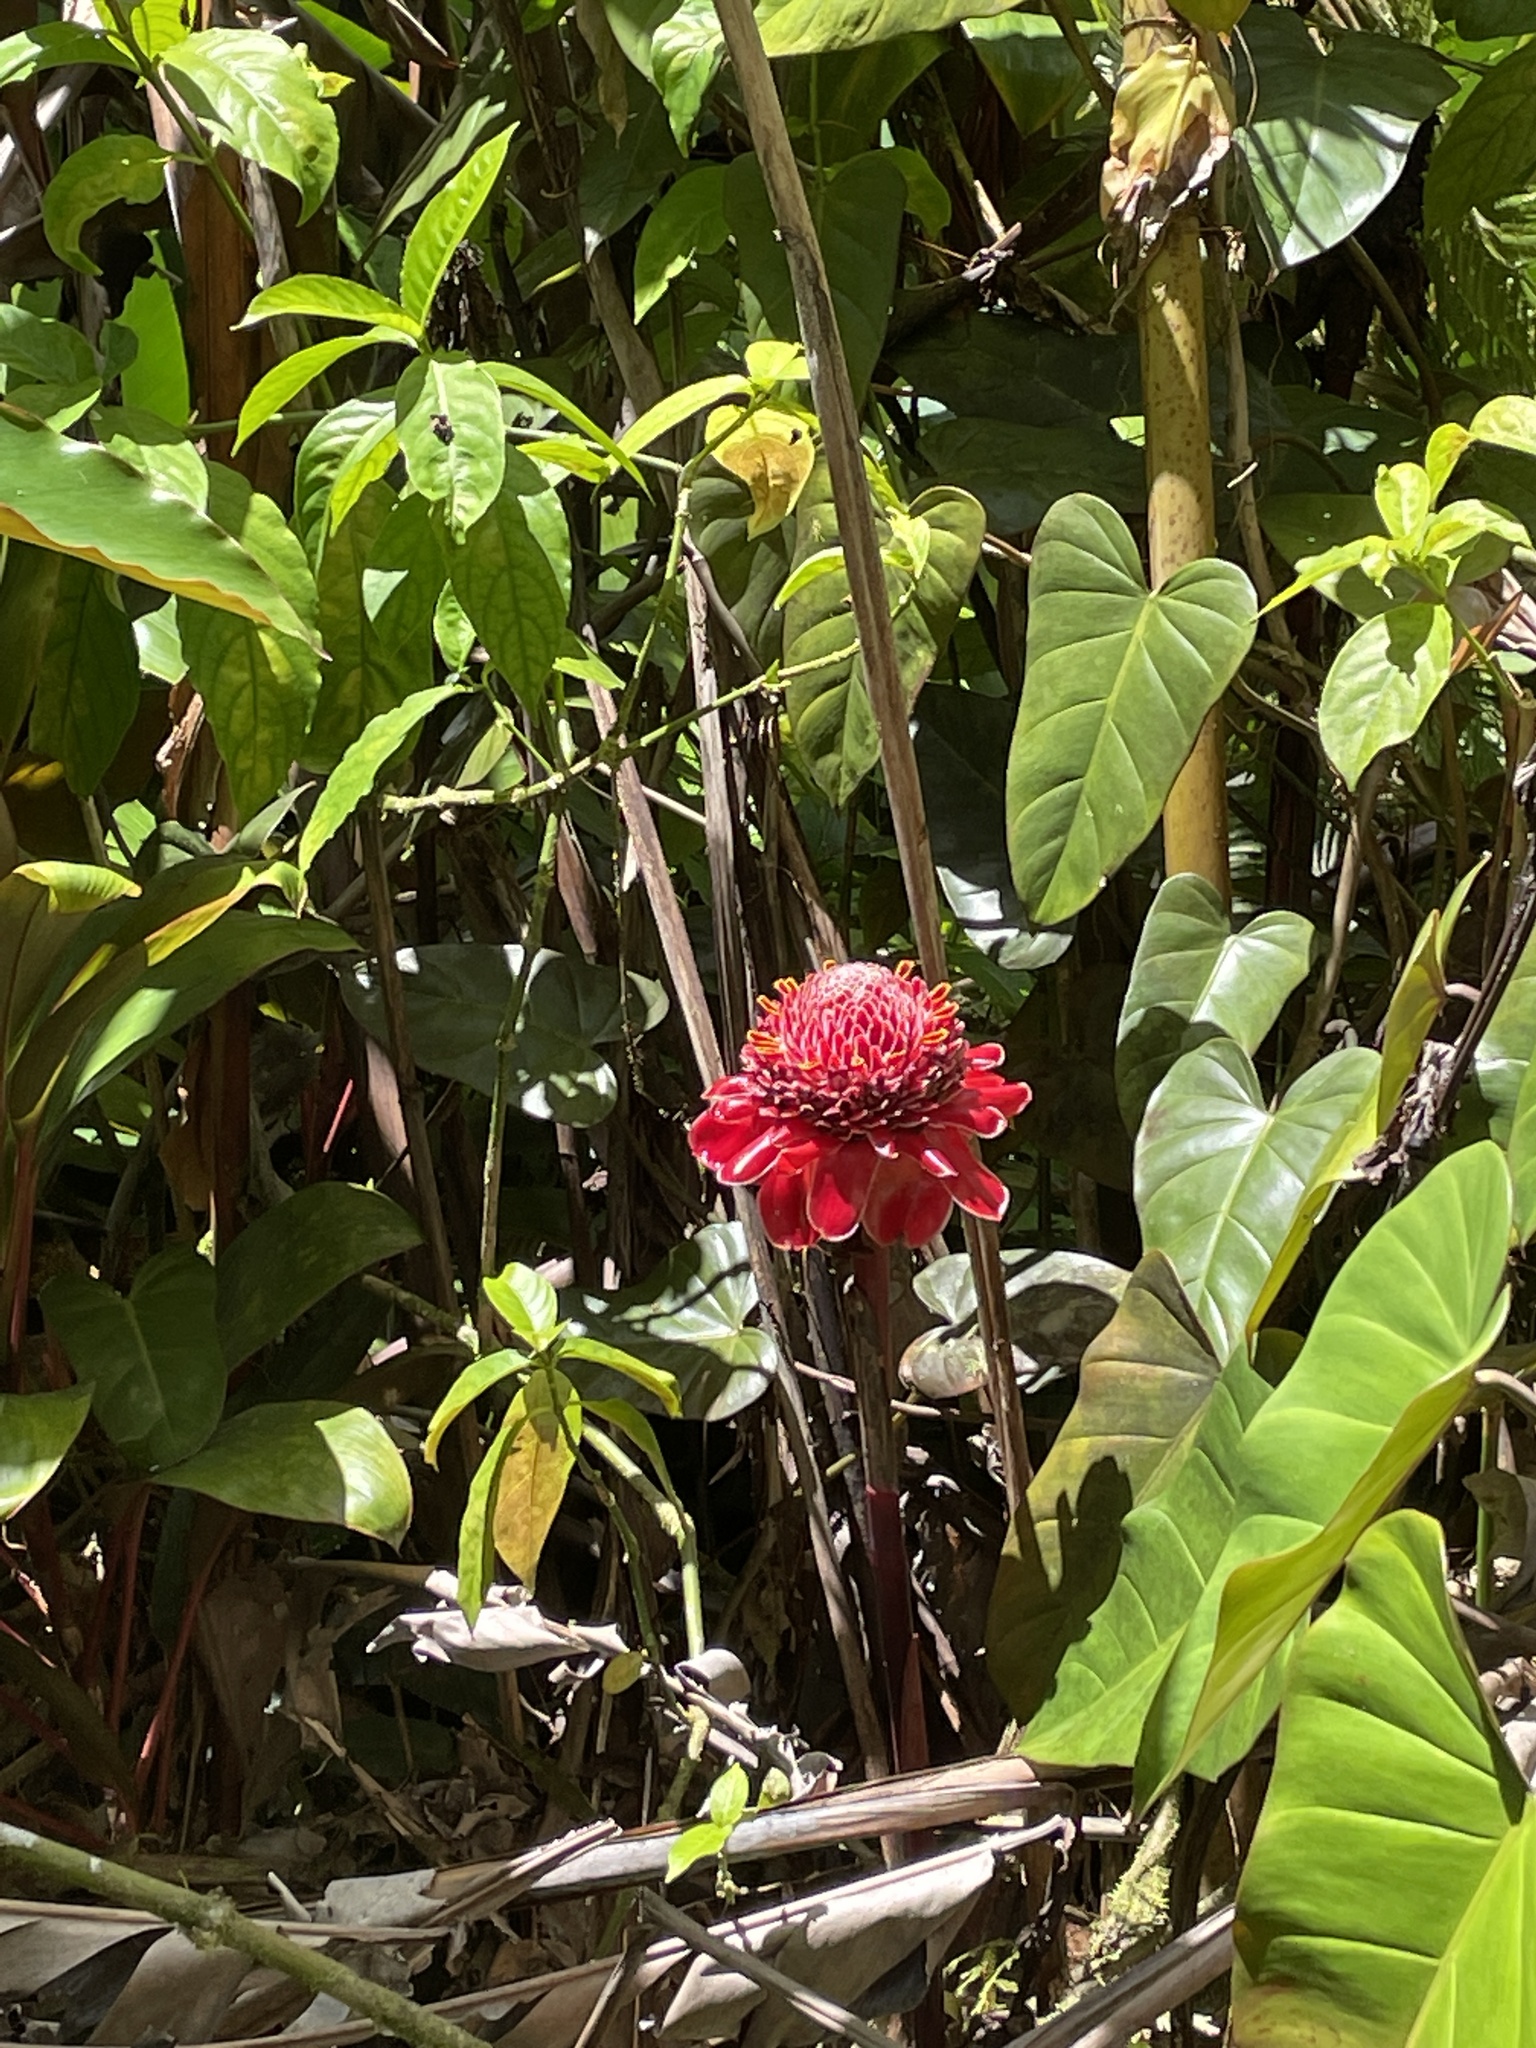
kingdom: Plantae
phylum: Tracheophyta
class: Liliopsida
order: Zingiberales
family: Zingiberaceae
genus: Etlingera
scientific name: Etlingera elatior
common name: Philippine waxflower
